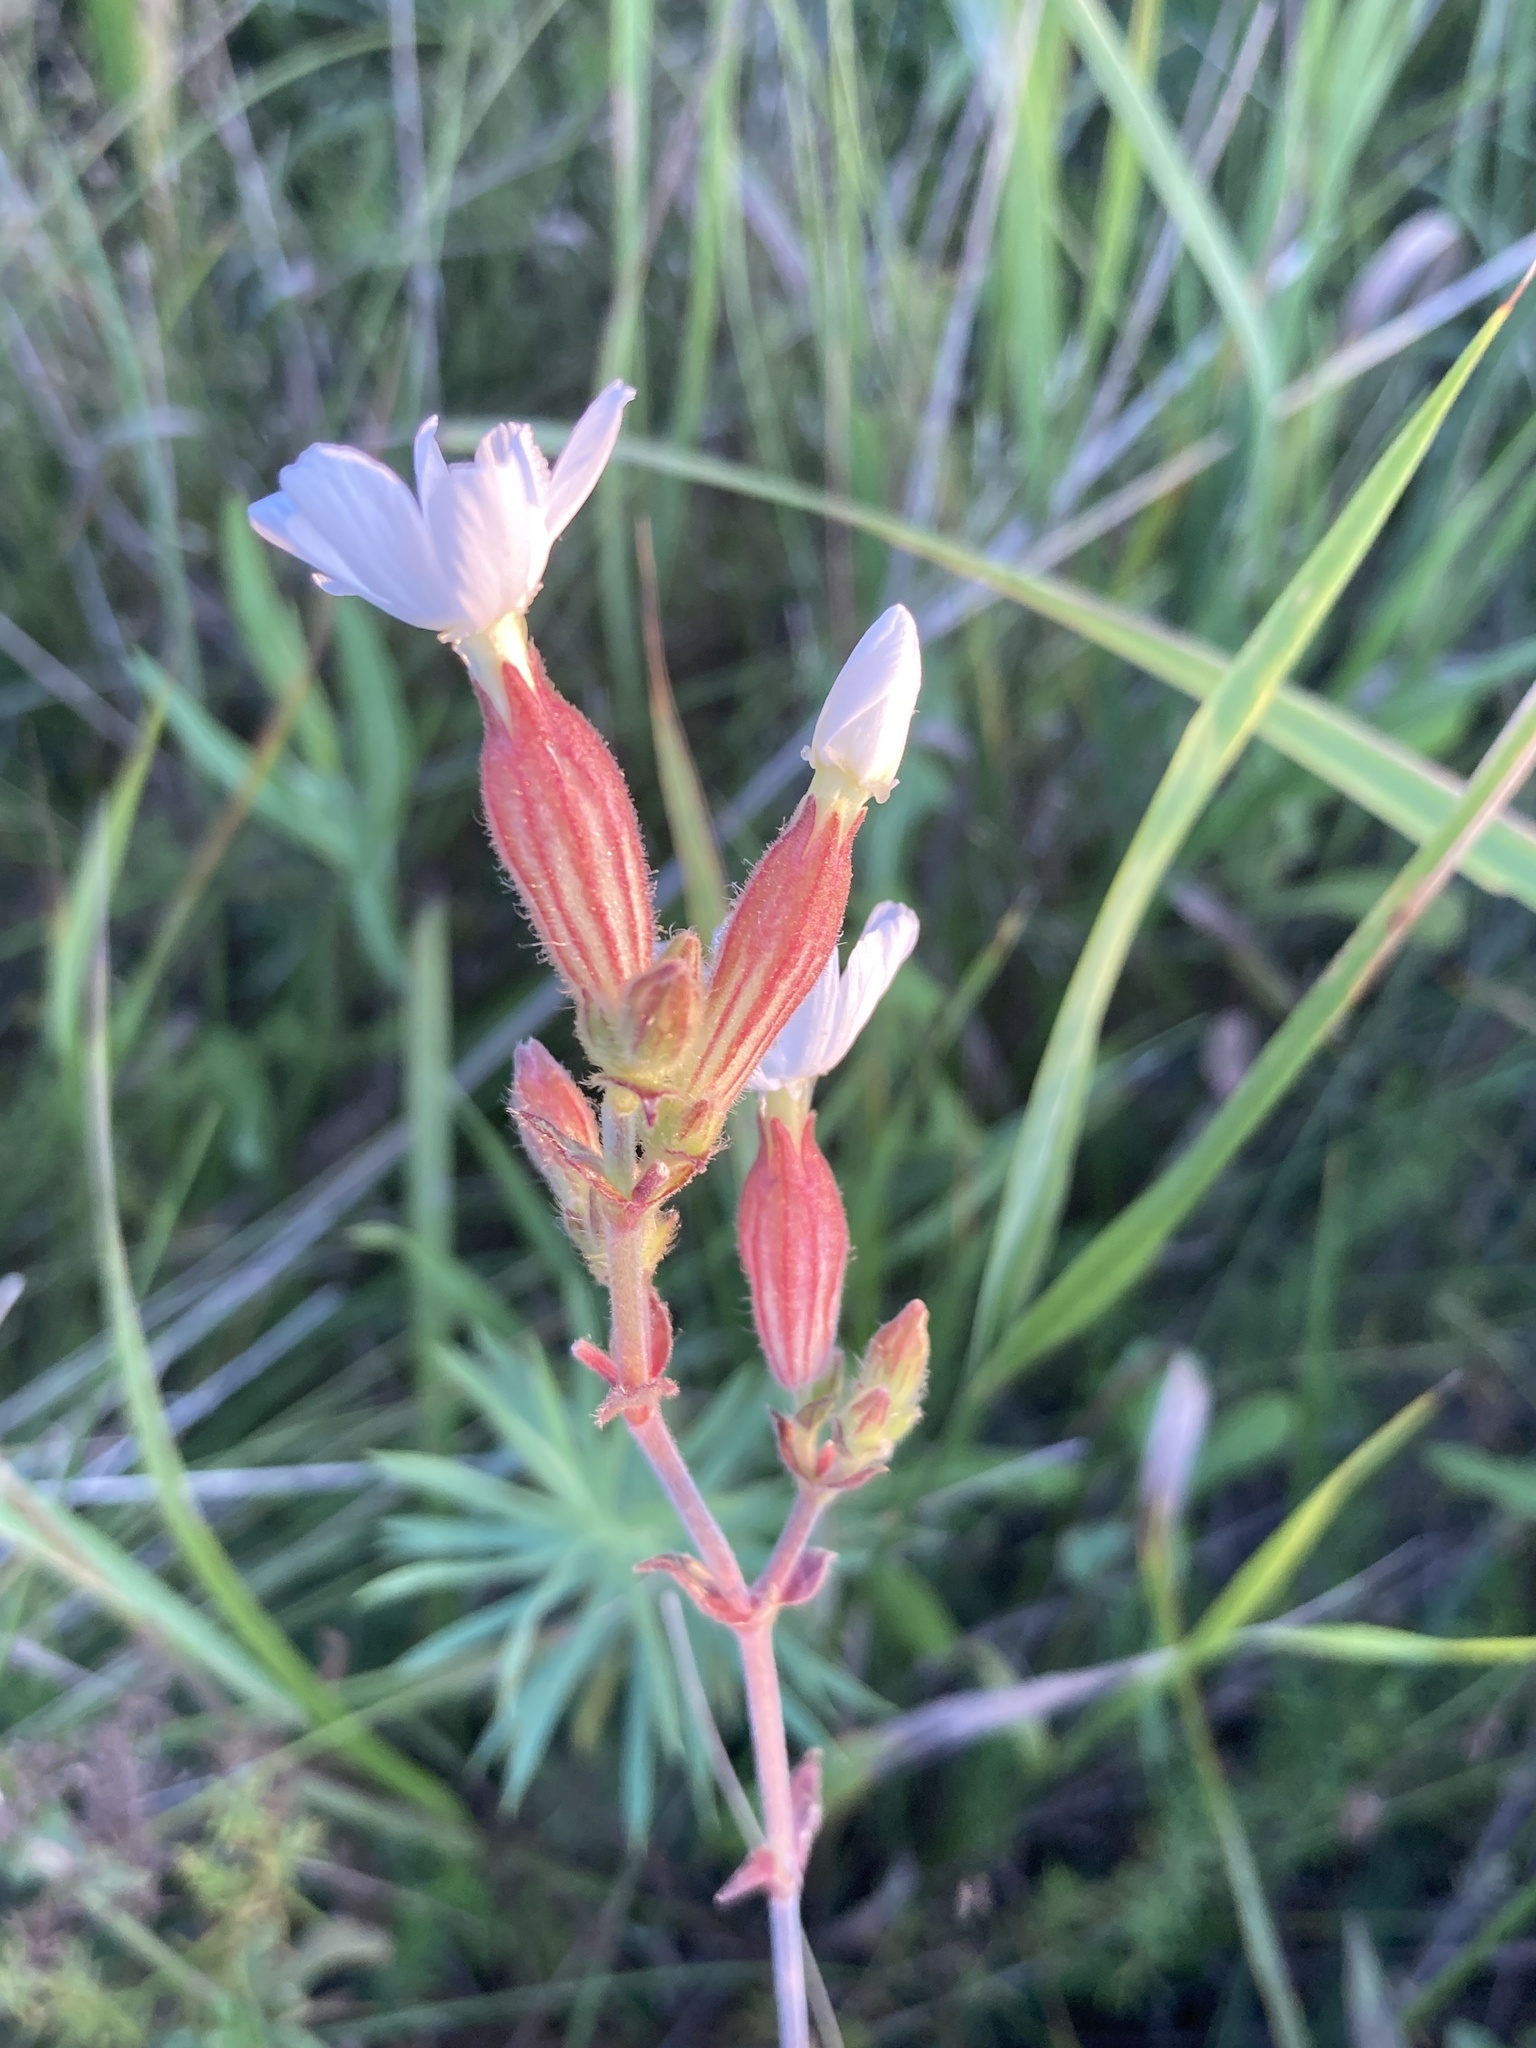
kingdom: Plantae
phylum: Tracheophyta
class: Magnoliopsida
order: Caryophyllales
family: Caryophyllaceae
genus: Silene
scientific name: Silene latifolia
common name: White campion
